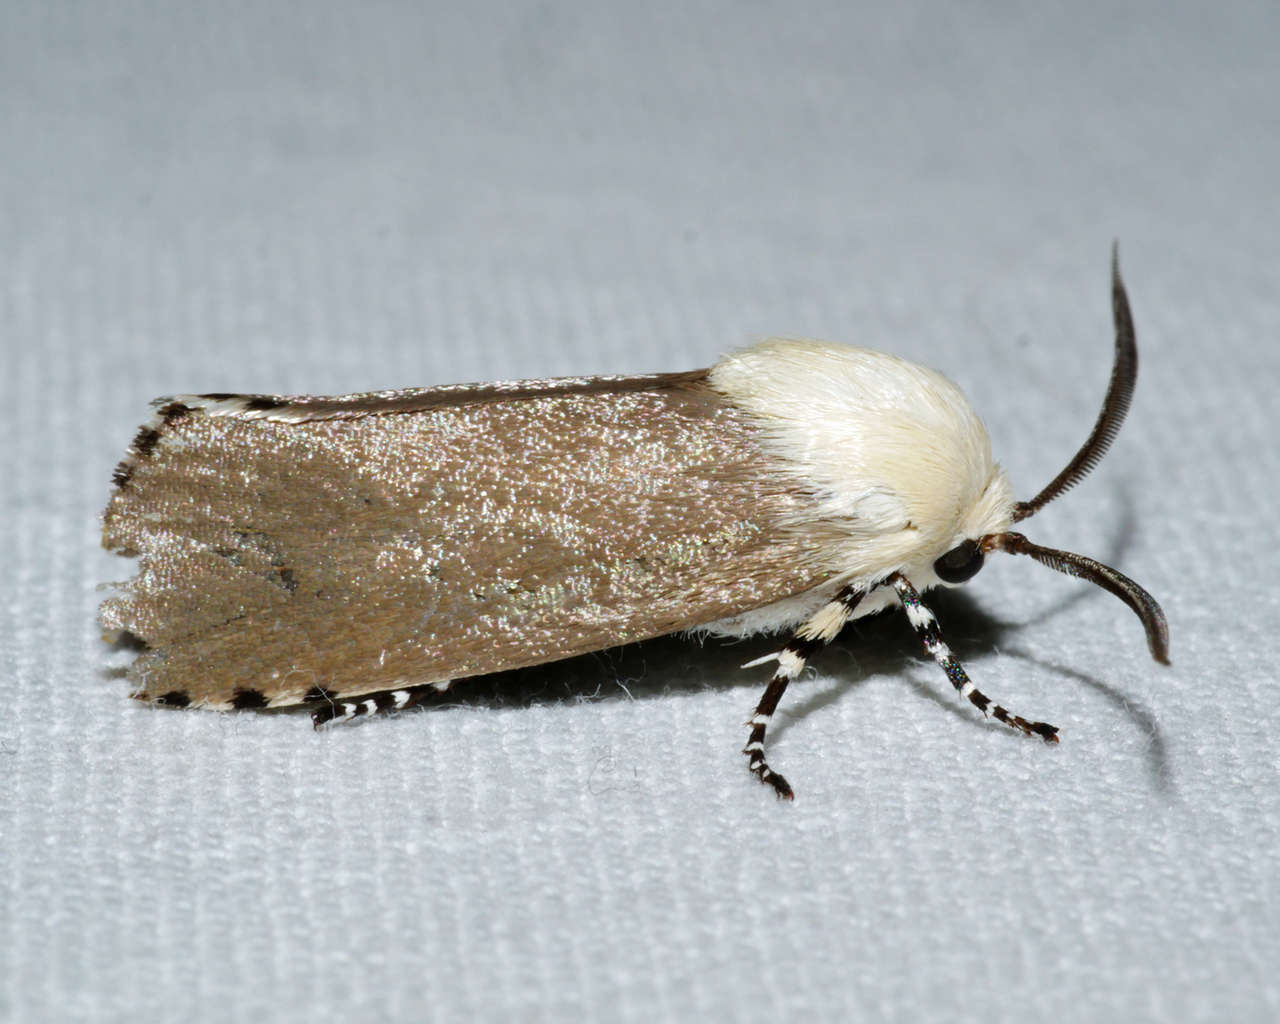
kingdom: Animalia
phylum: Arthropoda
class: Insecta
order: Lepidoptera
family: Xyloryctidae
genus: Cryptophasa
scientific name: Cryptophasa sacerdos
